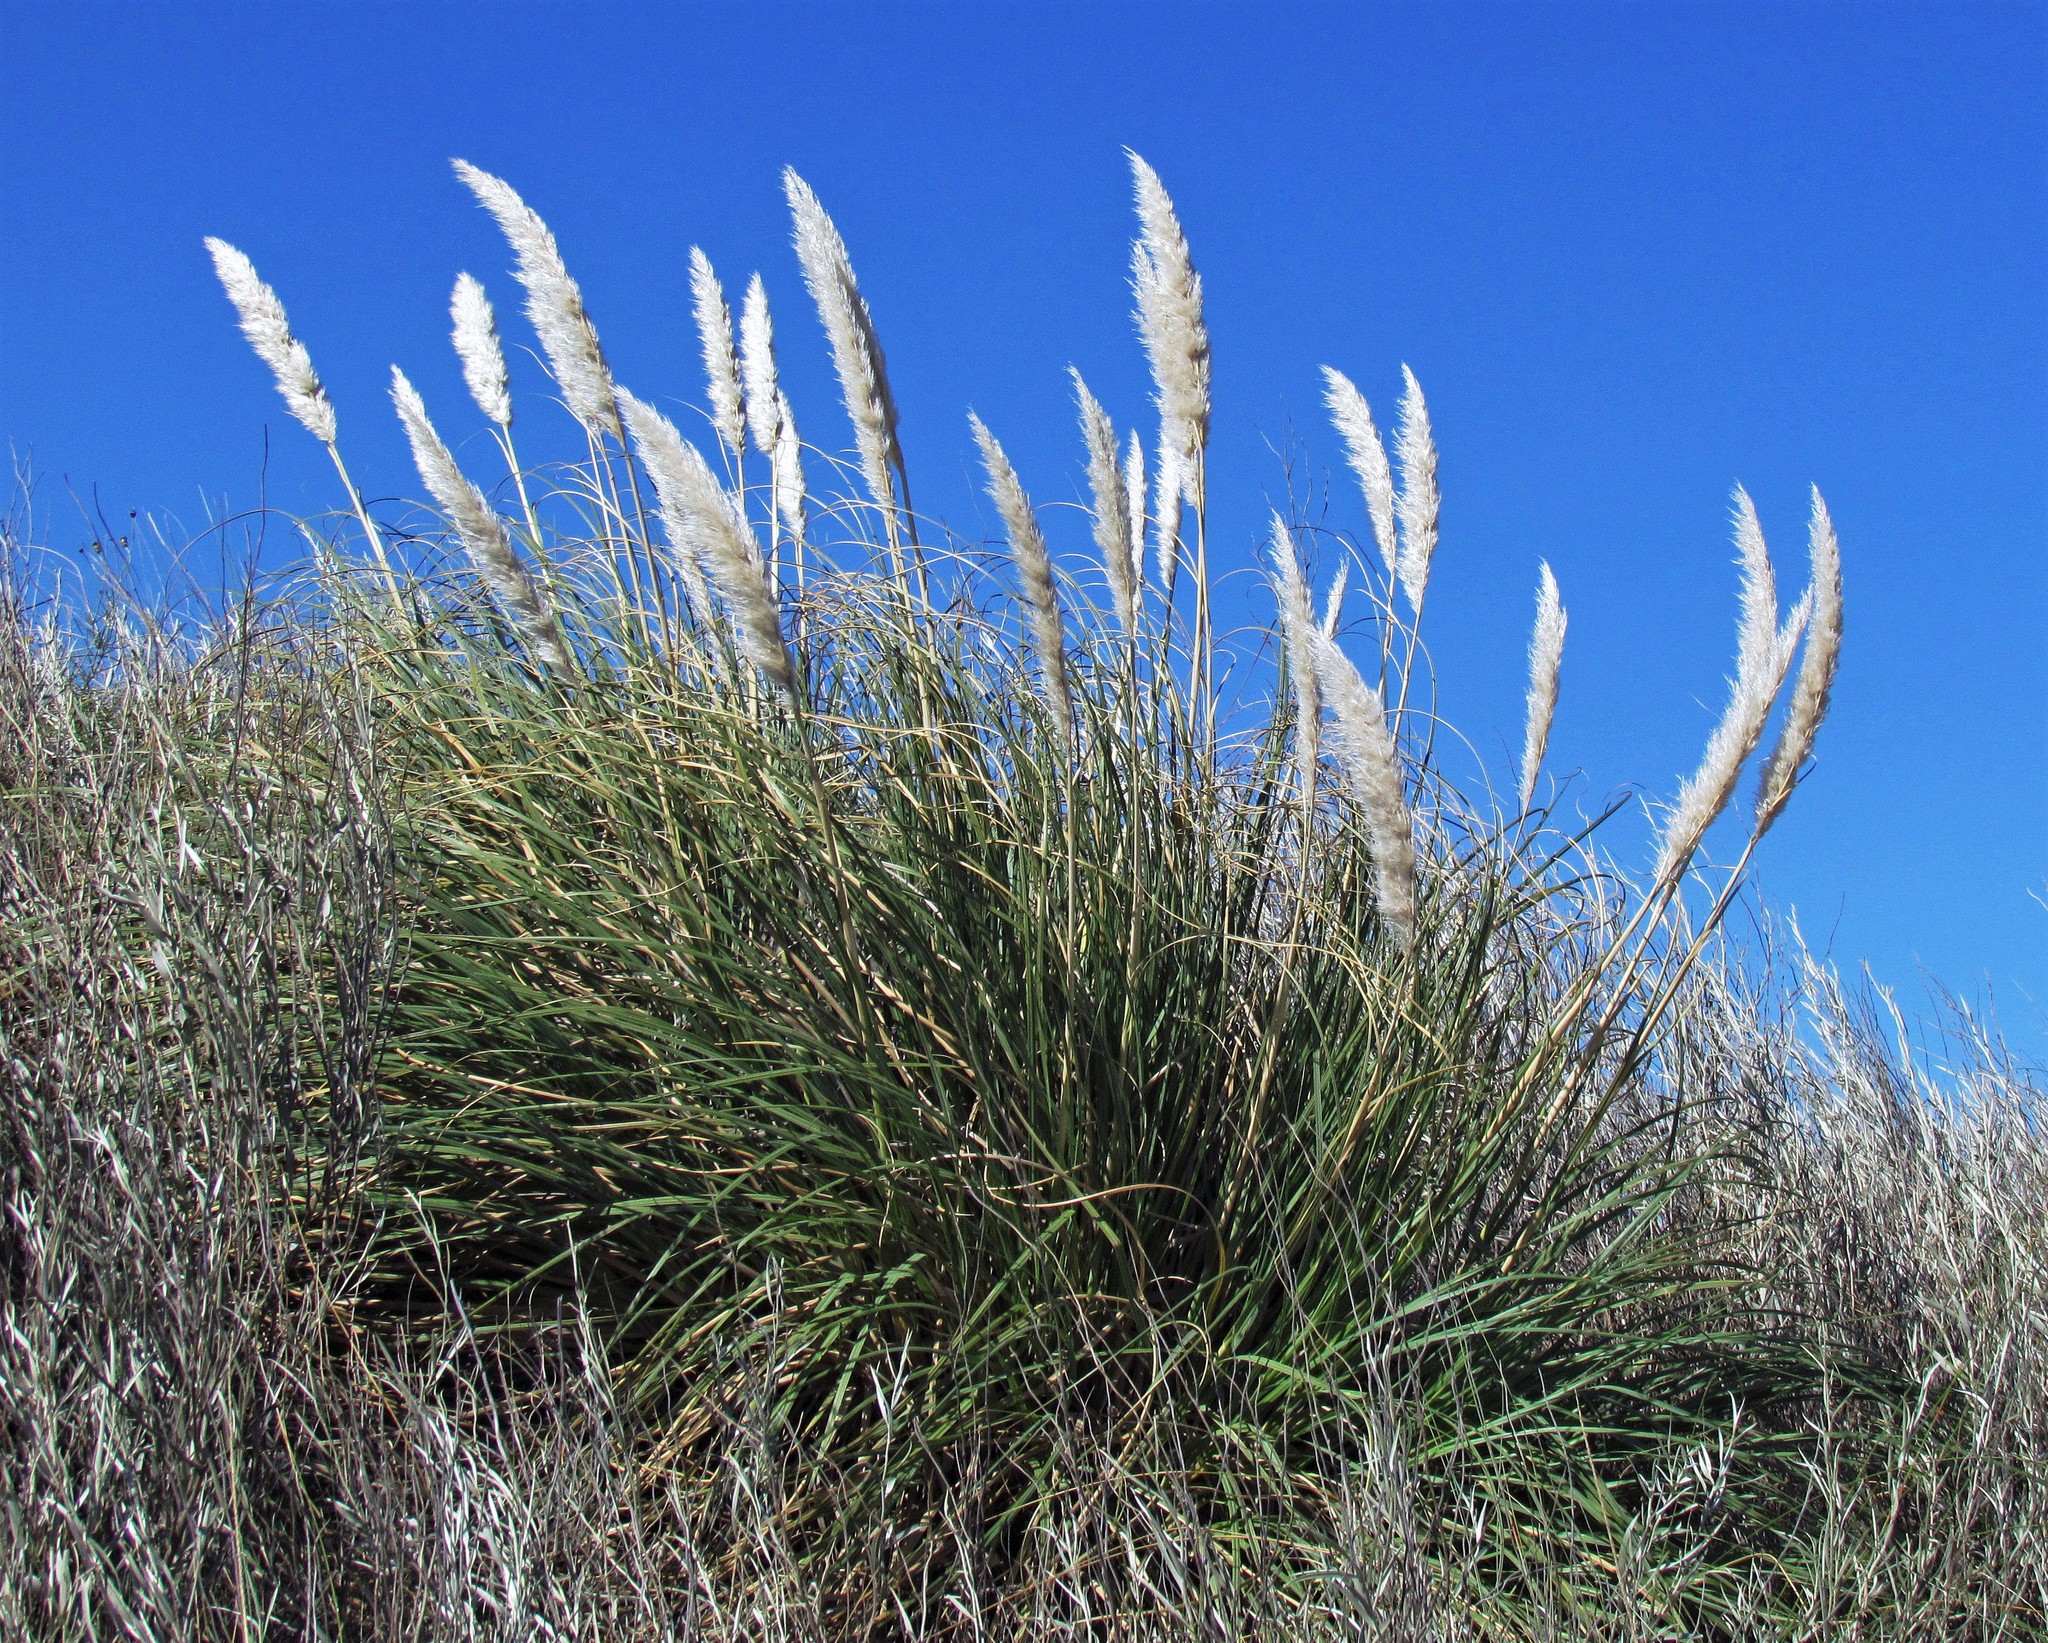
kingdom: Plantae
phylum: Tracheophyta
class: Liliopsida
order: Poales
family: Poaceae
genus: Cortaderia
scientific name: Cortaderia selloana
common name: Uruguayan pampas grass
